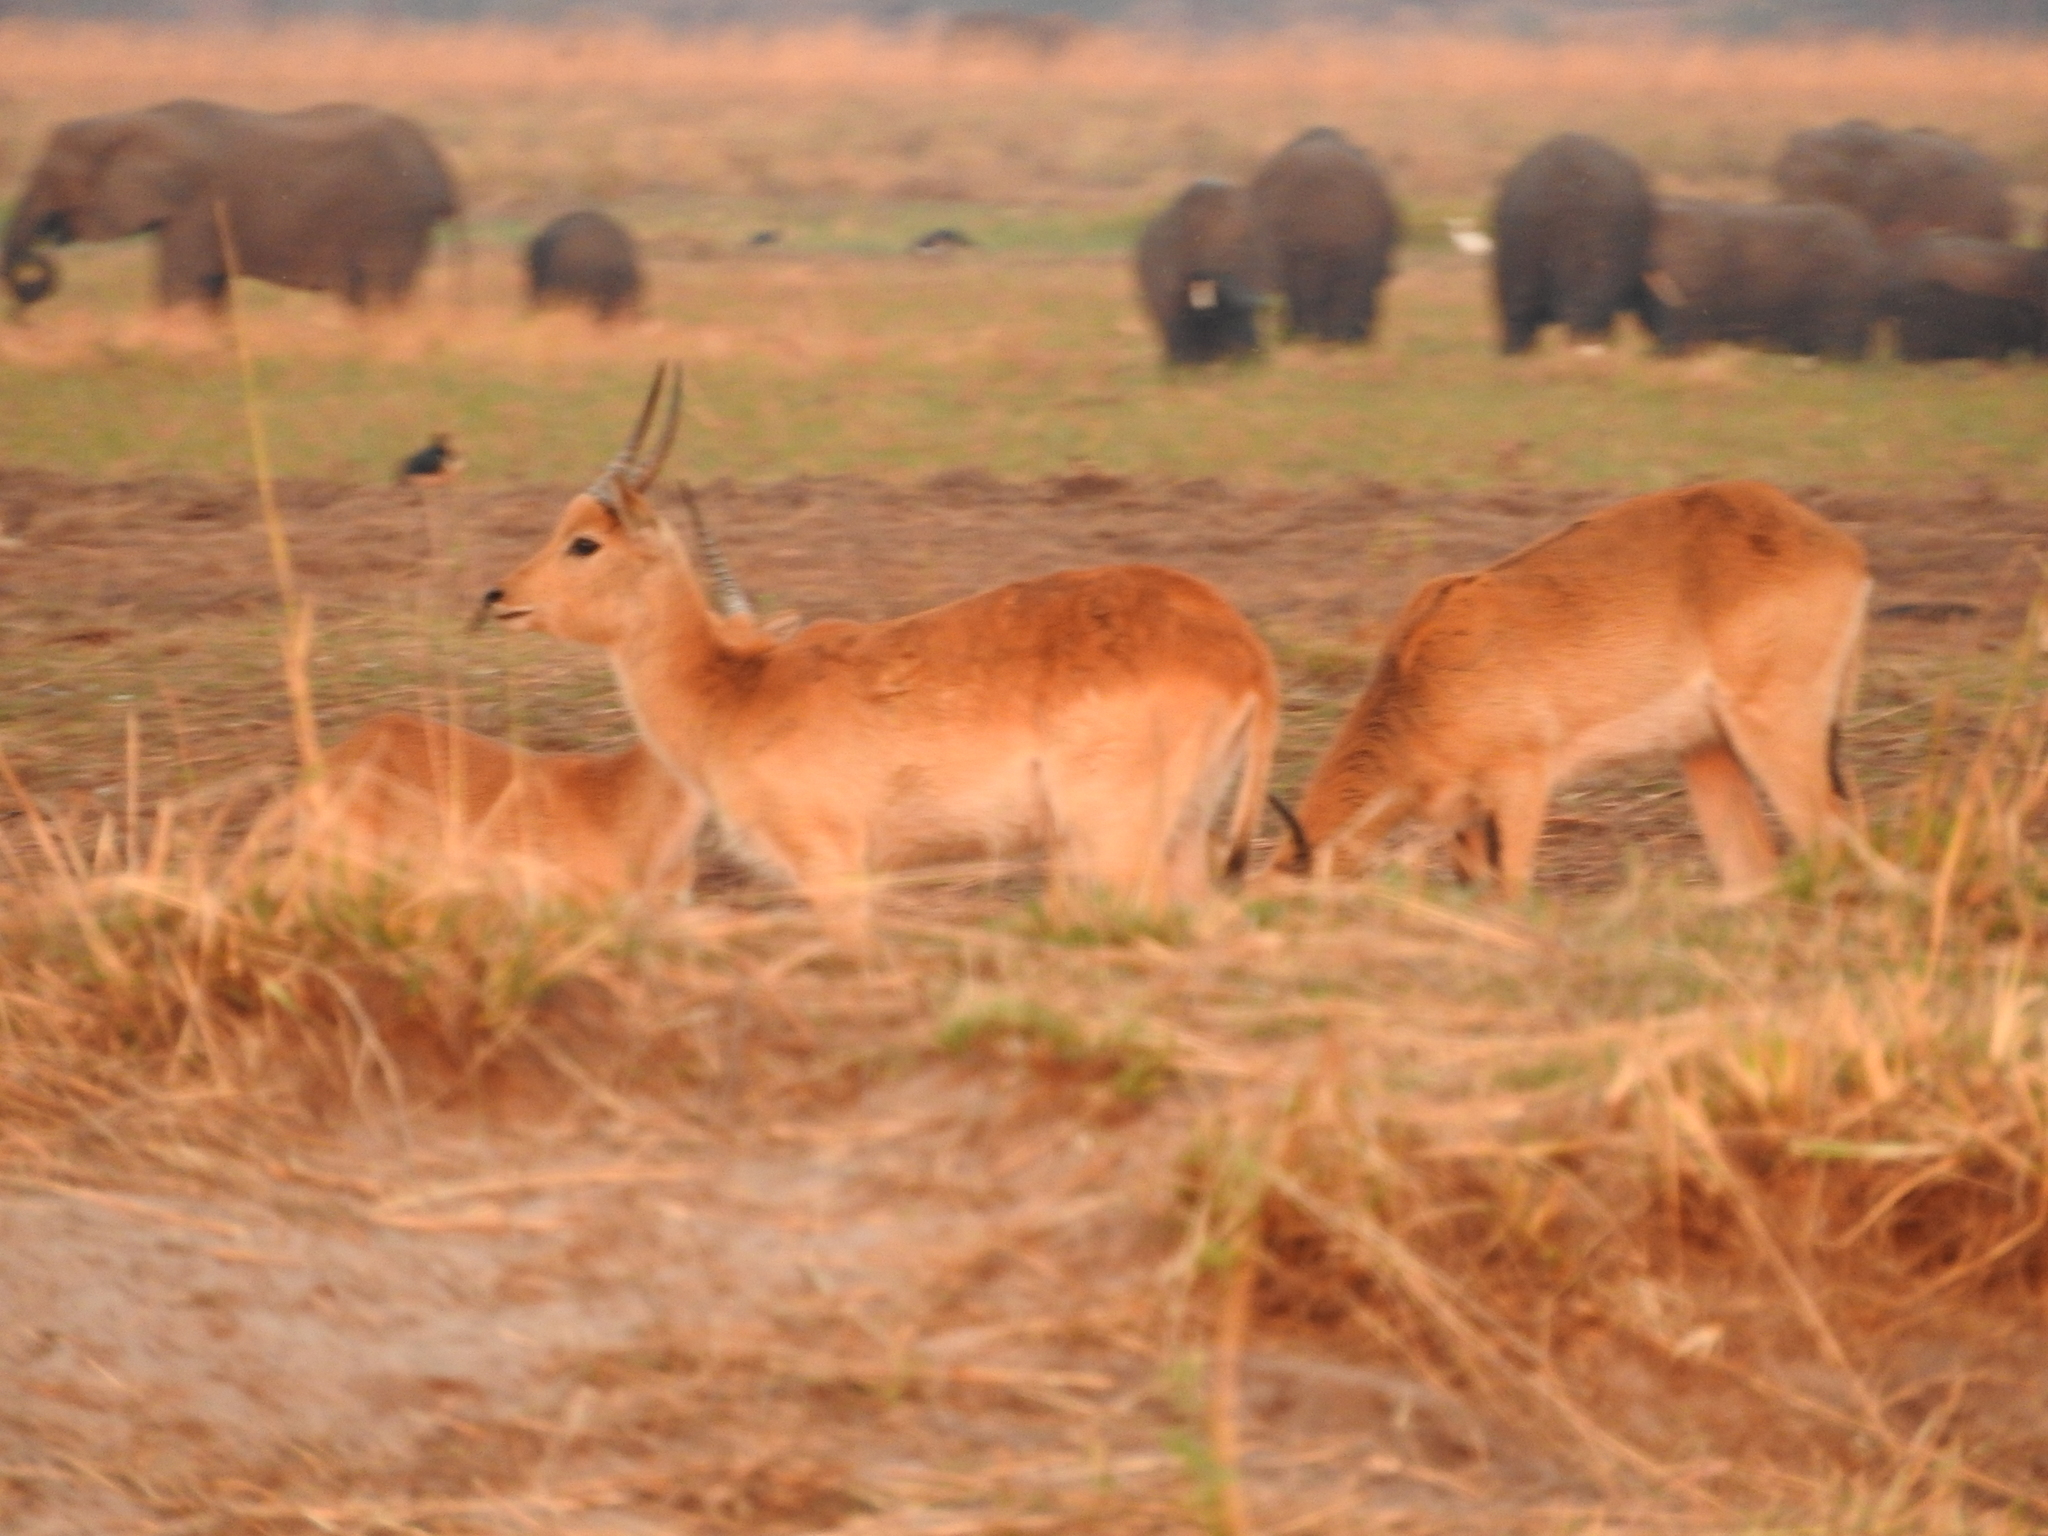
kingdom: Animalia
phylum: Chordata
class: Mammalia
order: Artiodactyla
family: Bovidae
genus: Kobus
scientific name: Kobus leche
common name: Lechwe
